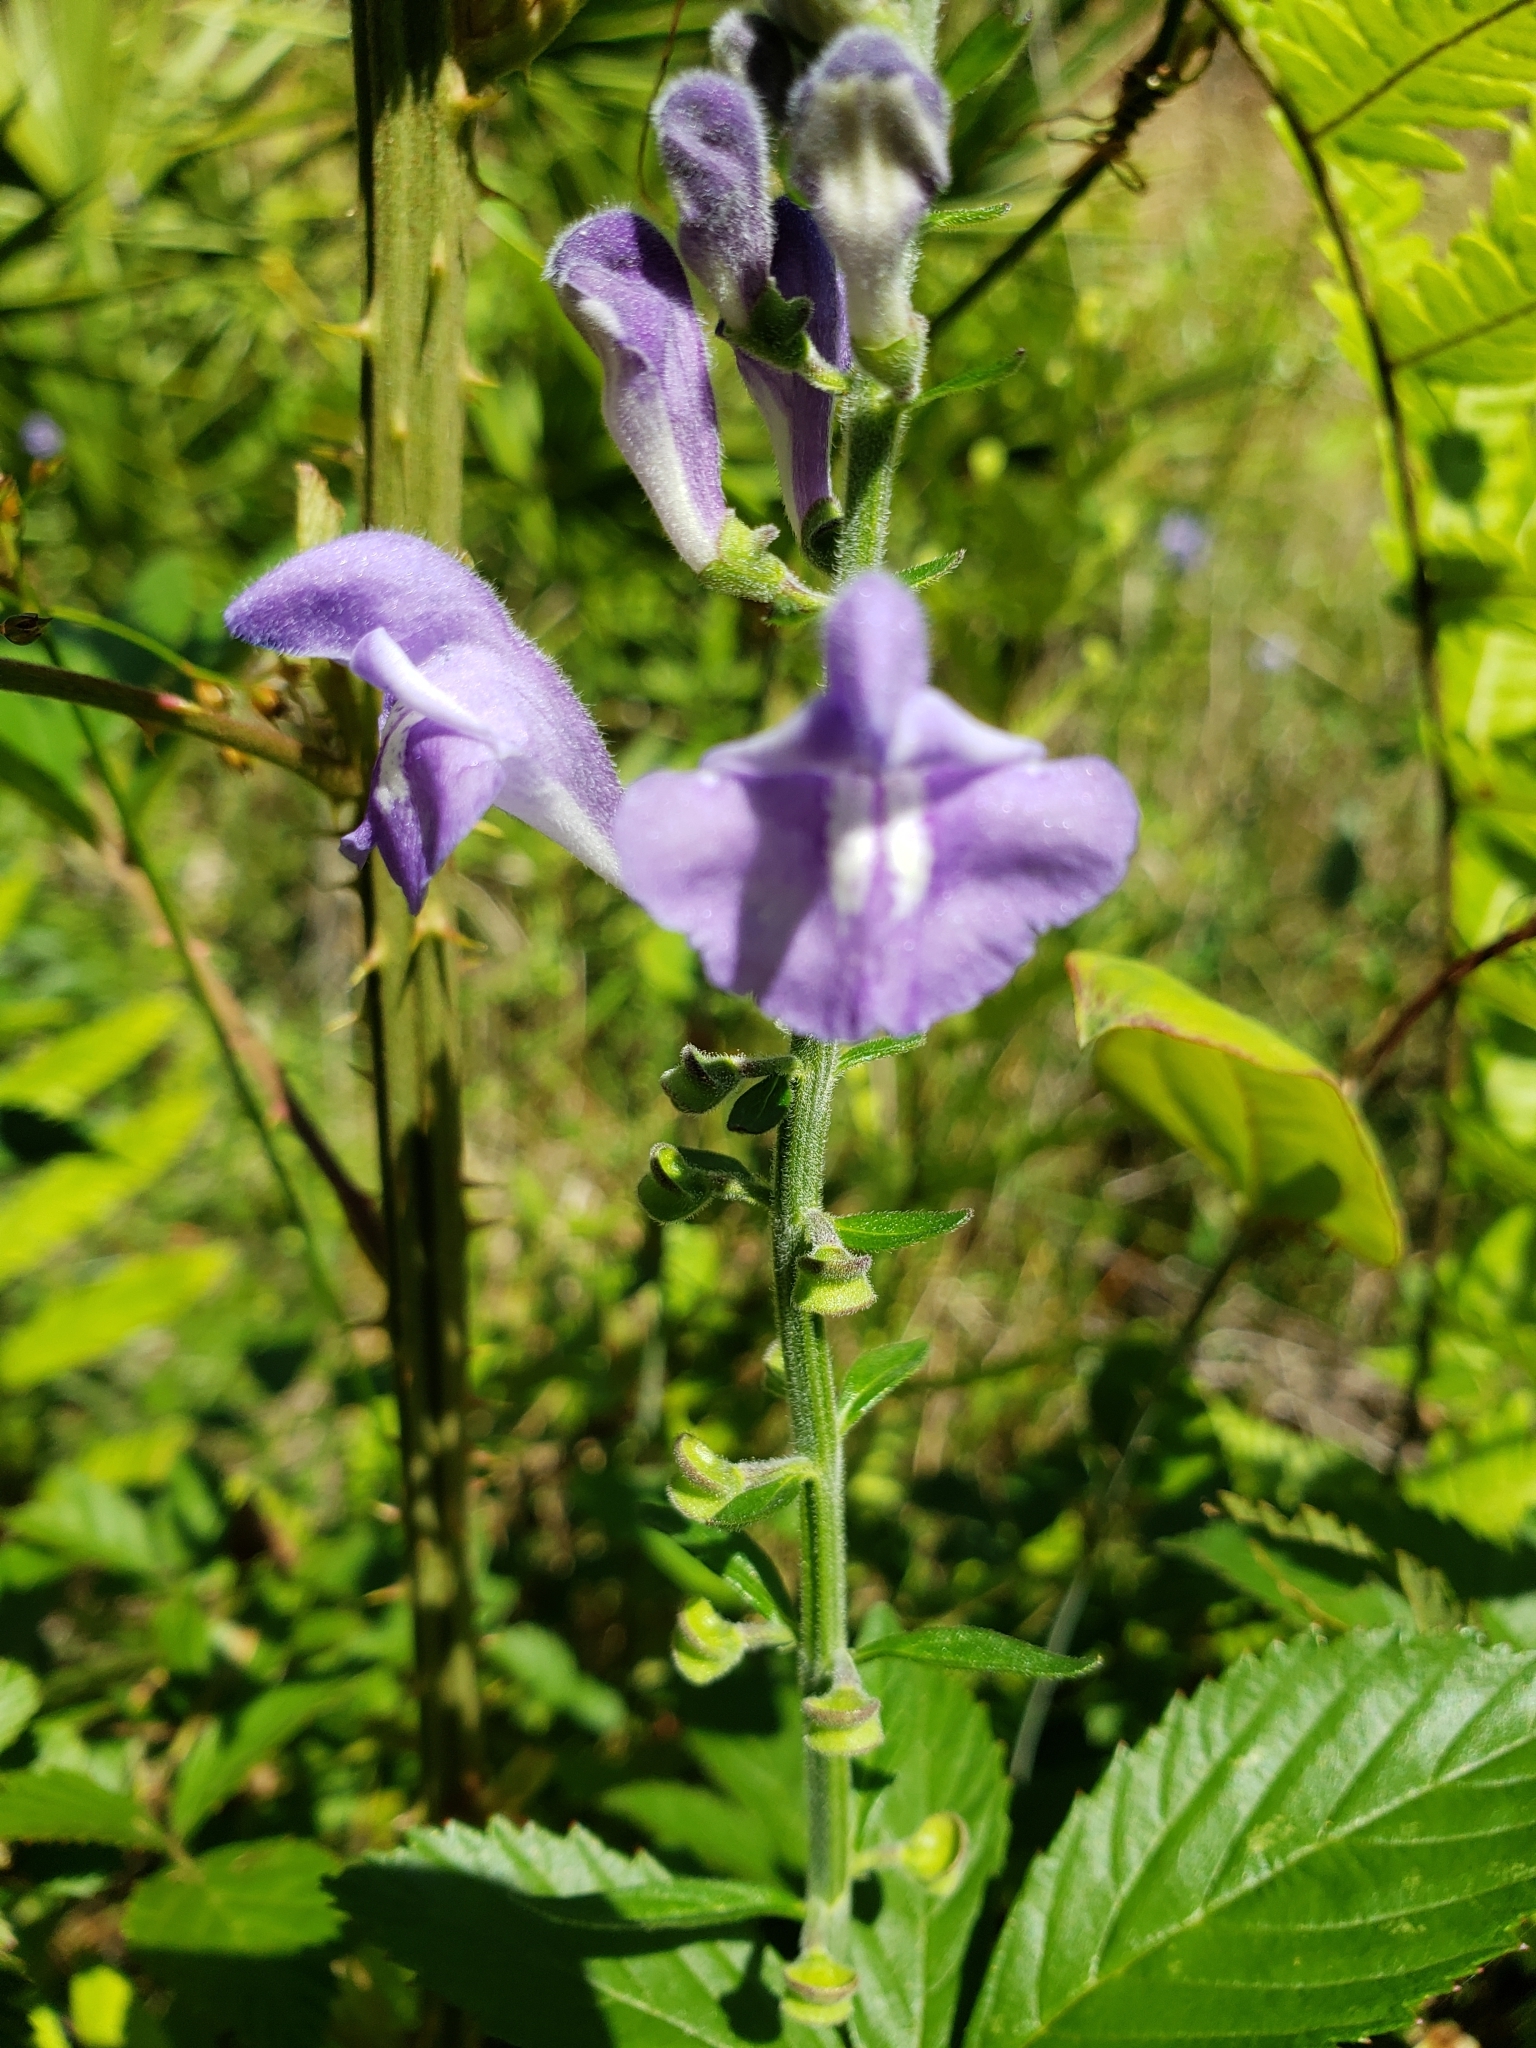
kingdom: Plantae
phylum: Tracheophyta
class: Magnoliopsida
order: Lamiales
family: Lamiaceae
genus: Scutellaria
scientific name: Scutellaria integrifolia
